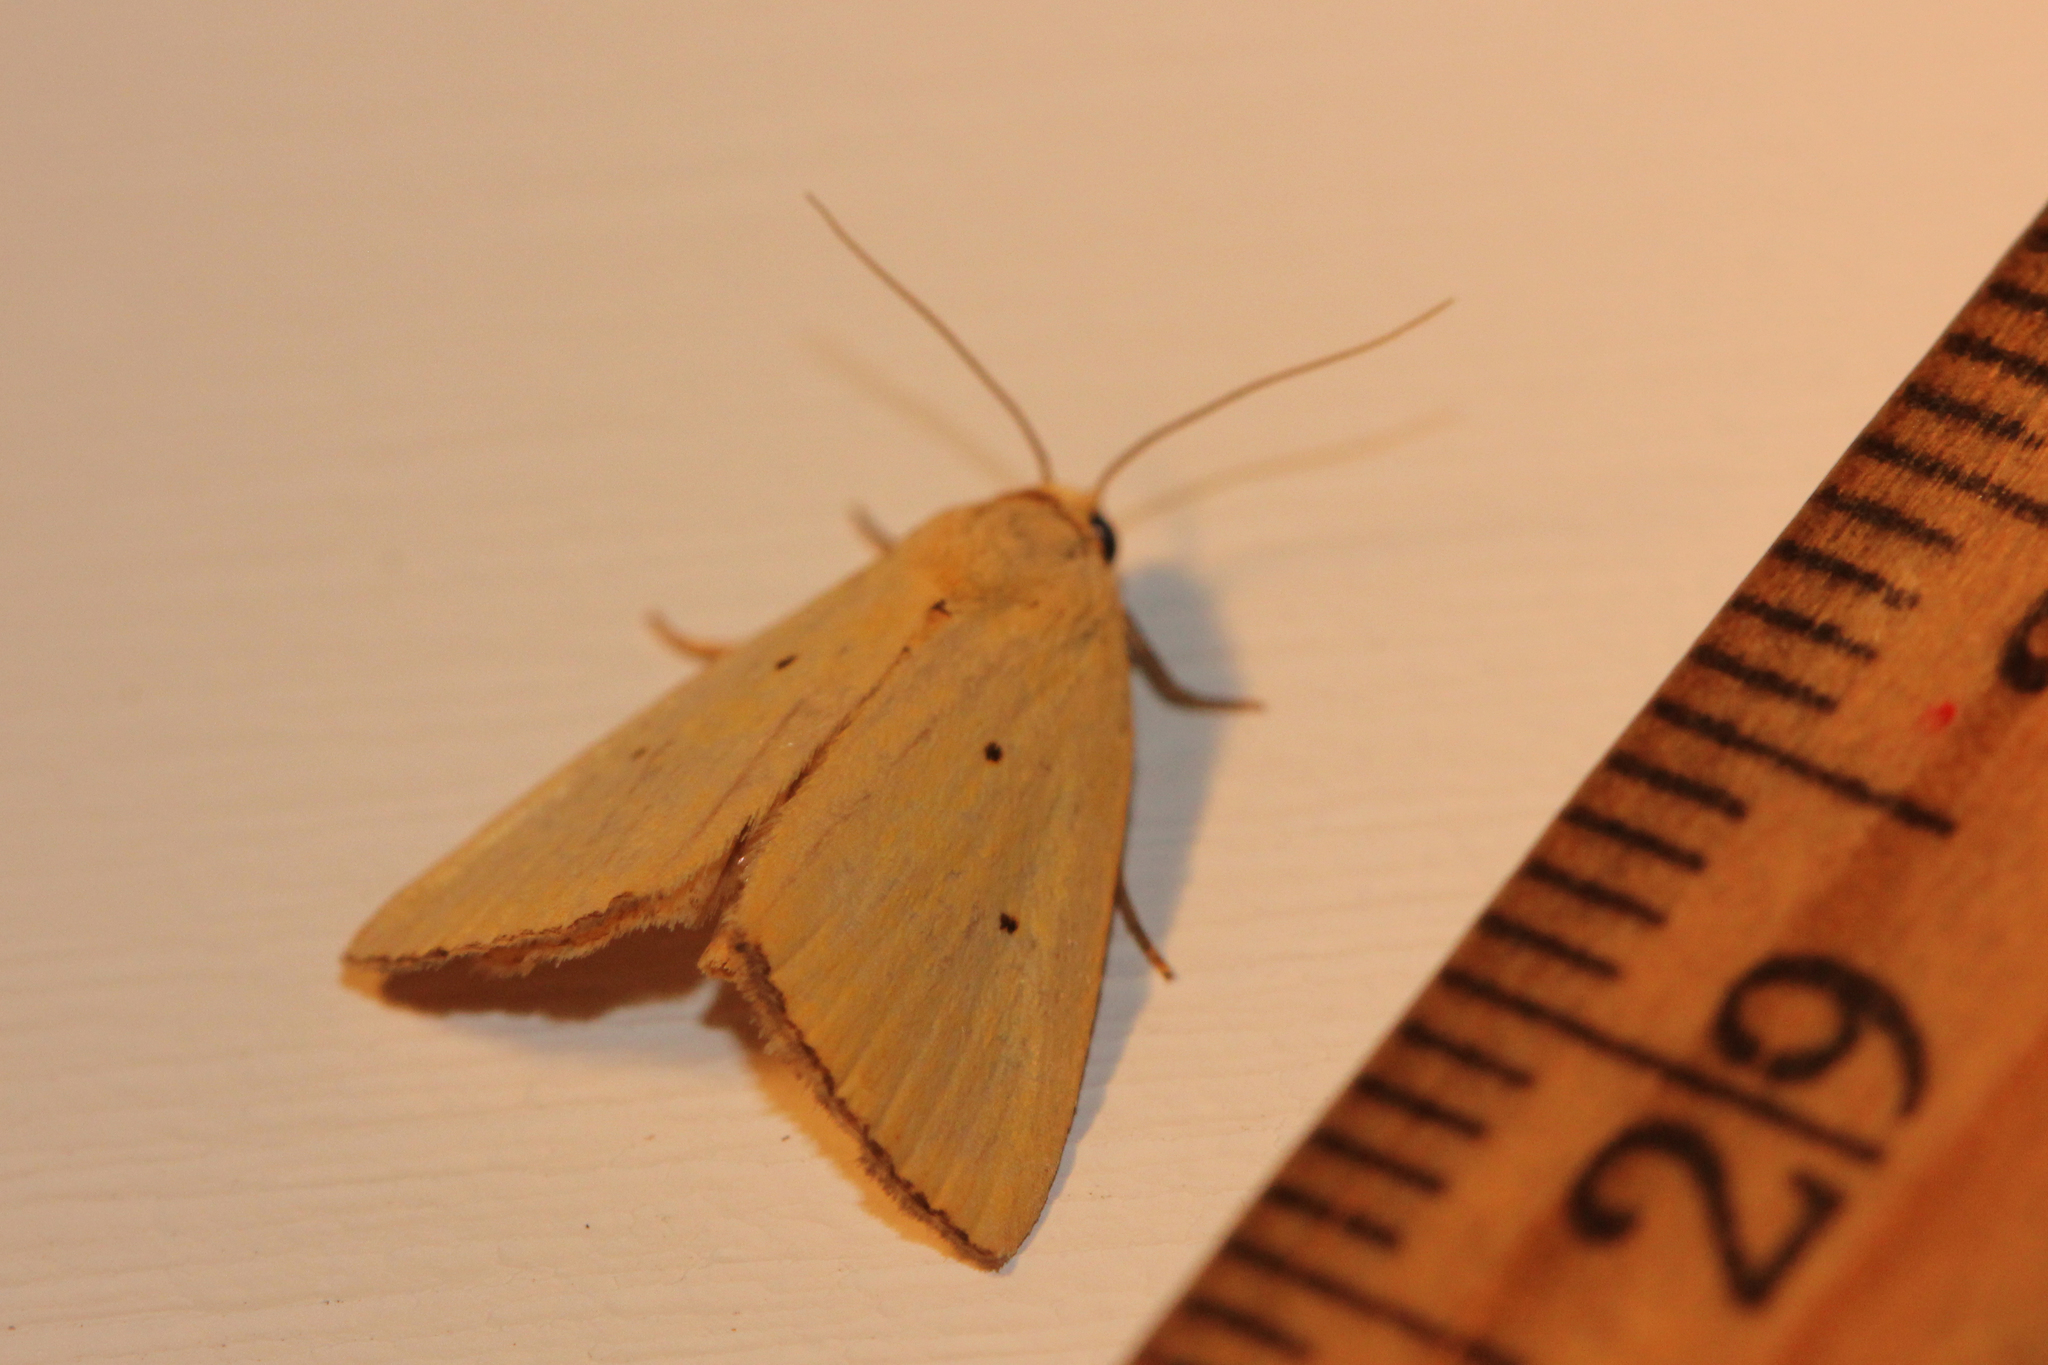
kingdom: Animalia
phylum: Arthropoda
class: Insecta
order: Lepidoptera
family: Noctuidae
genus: Marimatha
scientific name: Marimatha nigrofimbria
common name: Black-bordered lemon moth
